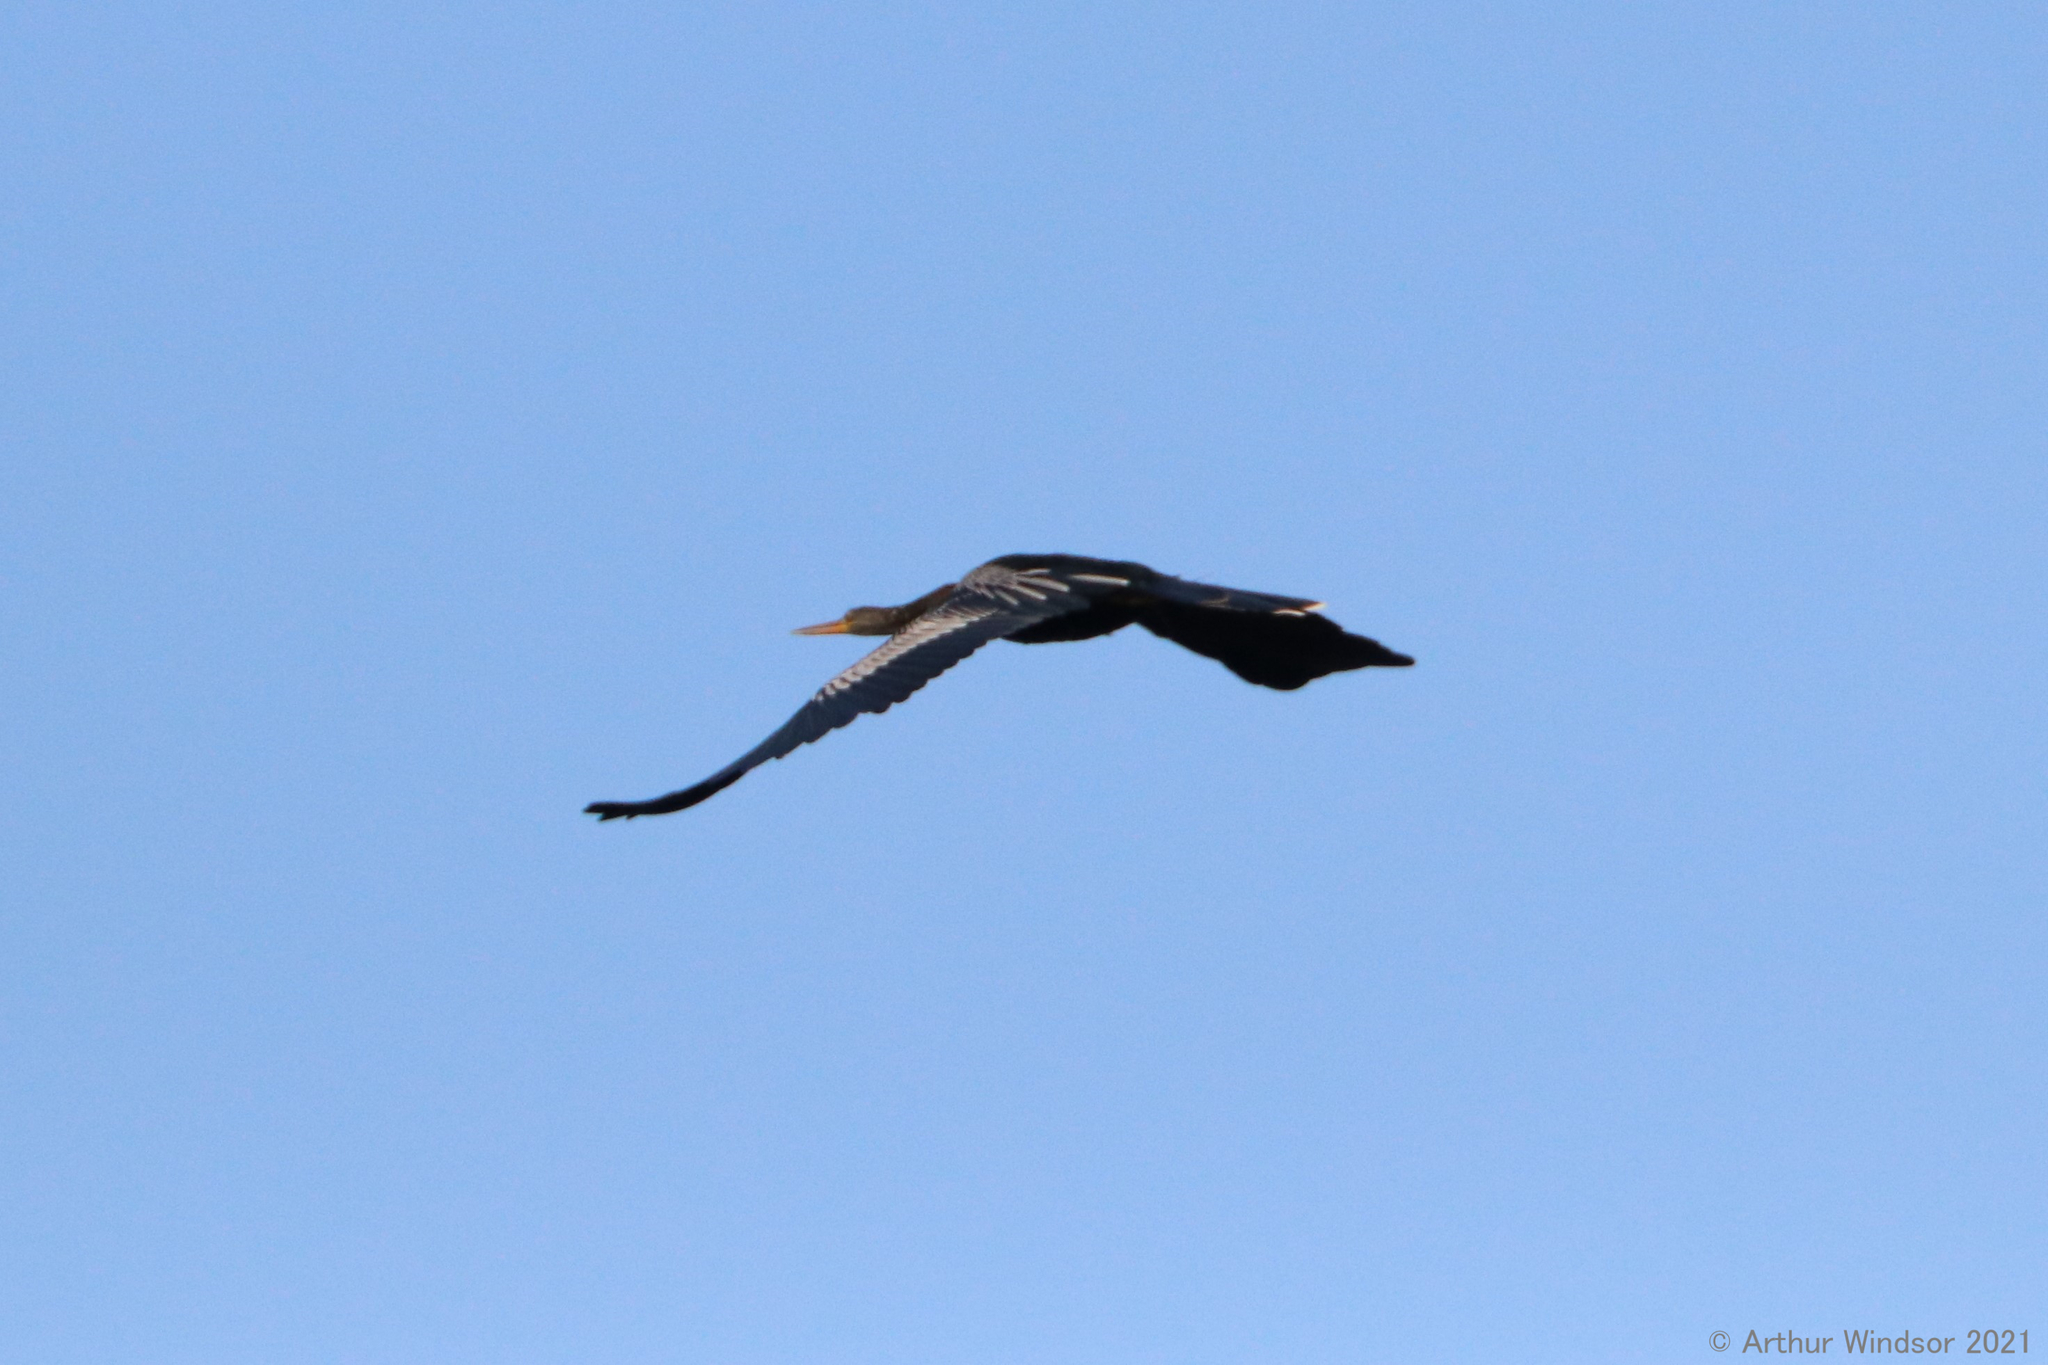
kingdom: Animalia
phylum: Chordata
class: Aves
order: Suliformes
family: Anhingidae
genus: Anhinga
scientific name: Anhinga anhinga
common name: Anhinga
